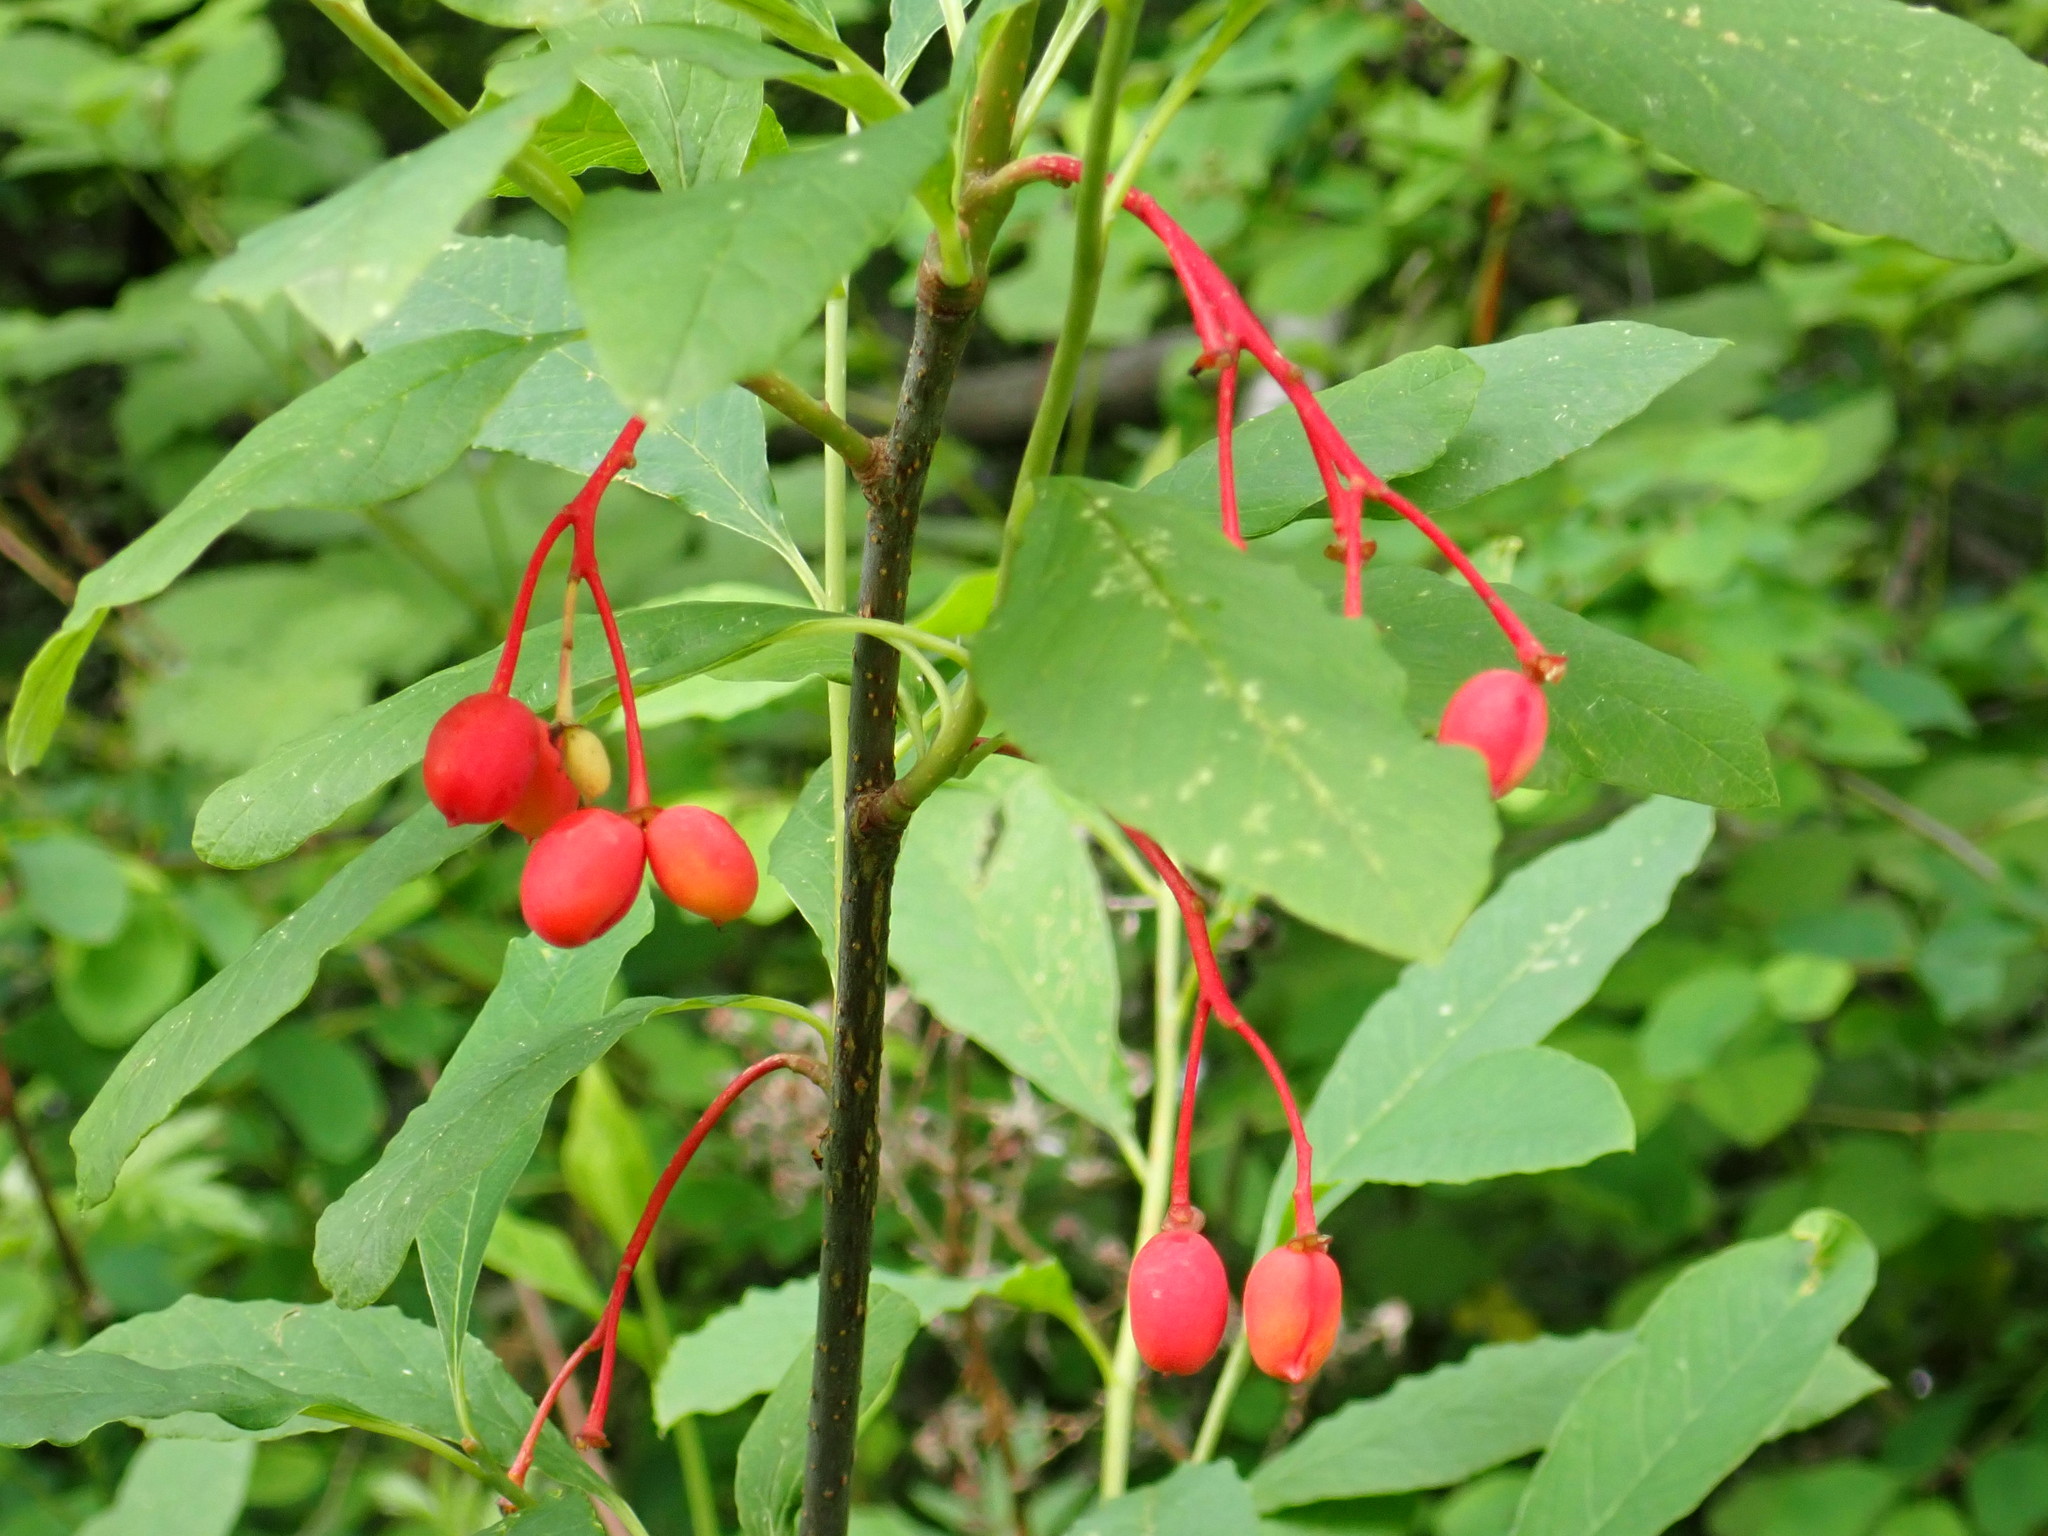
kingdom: Plantae
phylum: Tracheophyta
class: Magnoliopsida
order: Rosales
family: Rosaceae
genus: Oemleria
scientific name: Oemleria cerasiformis
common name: Osoberry
